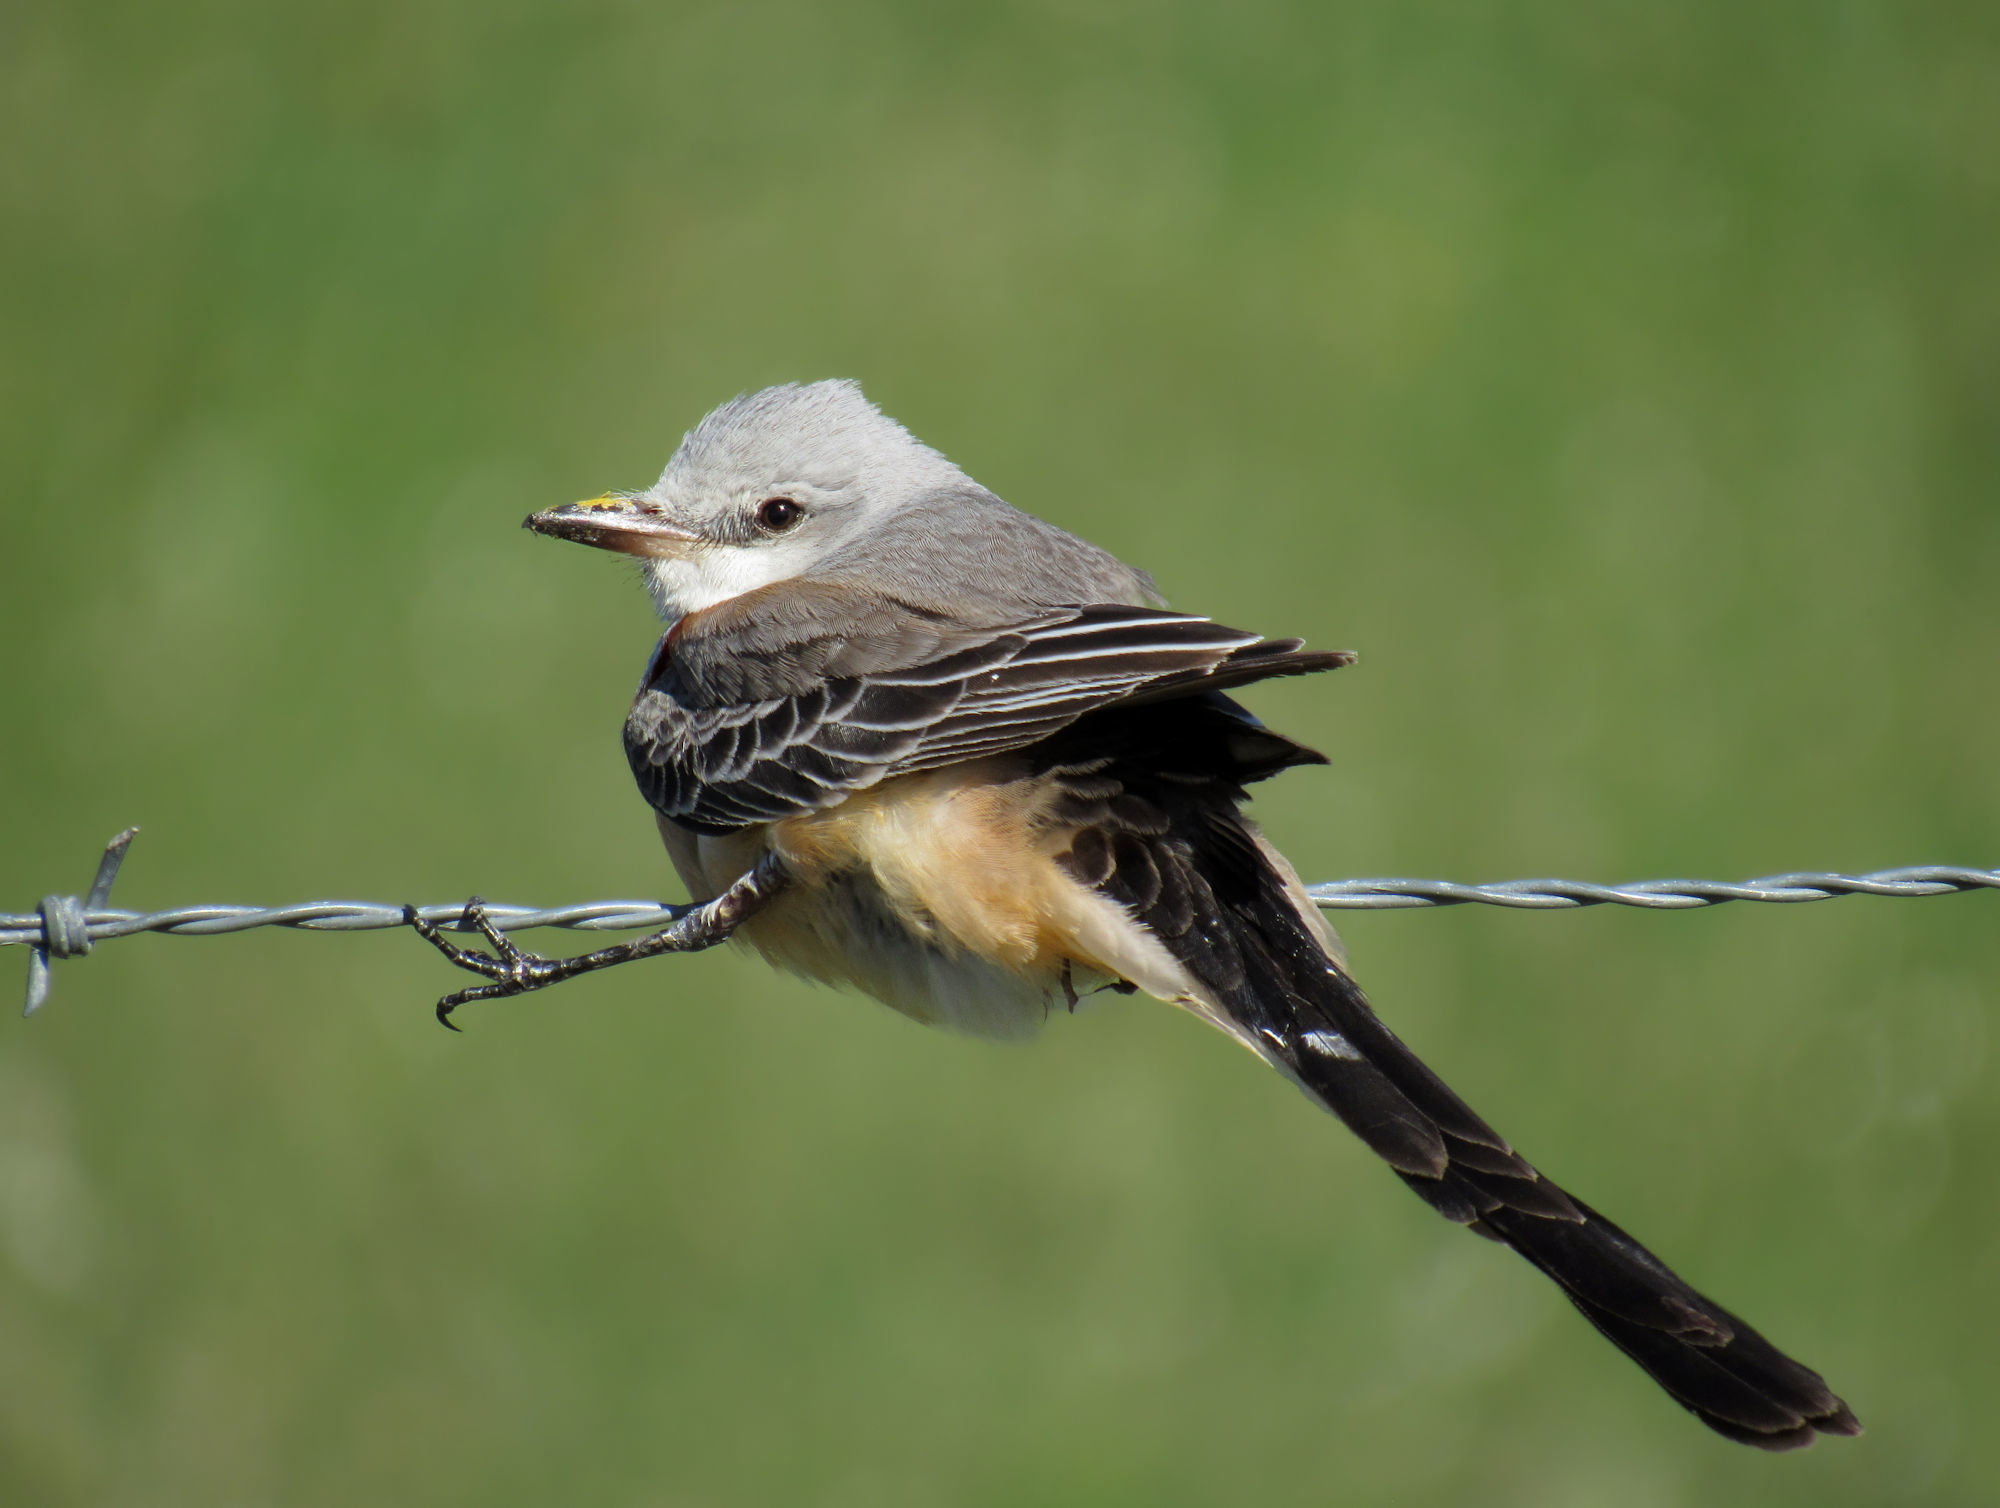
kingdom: Animalia
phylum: Chordata
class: Aves
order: Passeriformes
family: Tyrannidae
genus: Tyrannus
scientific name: Tyrannus forficatus
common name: Scissor-tailed flycatcher
